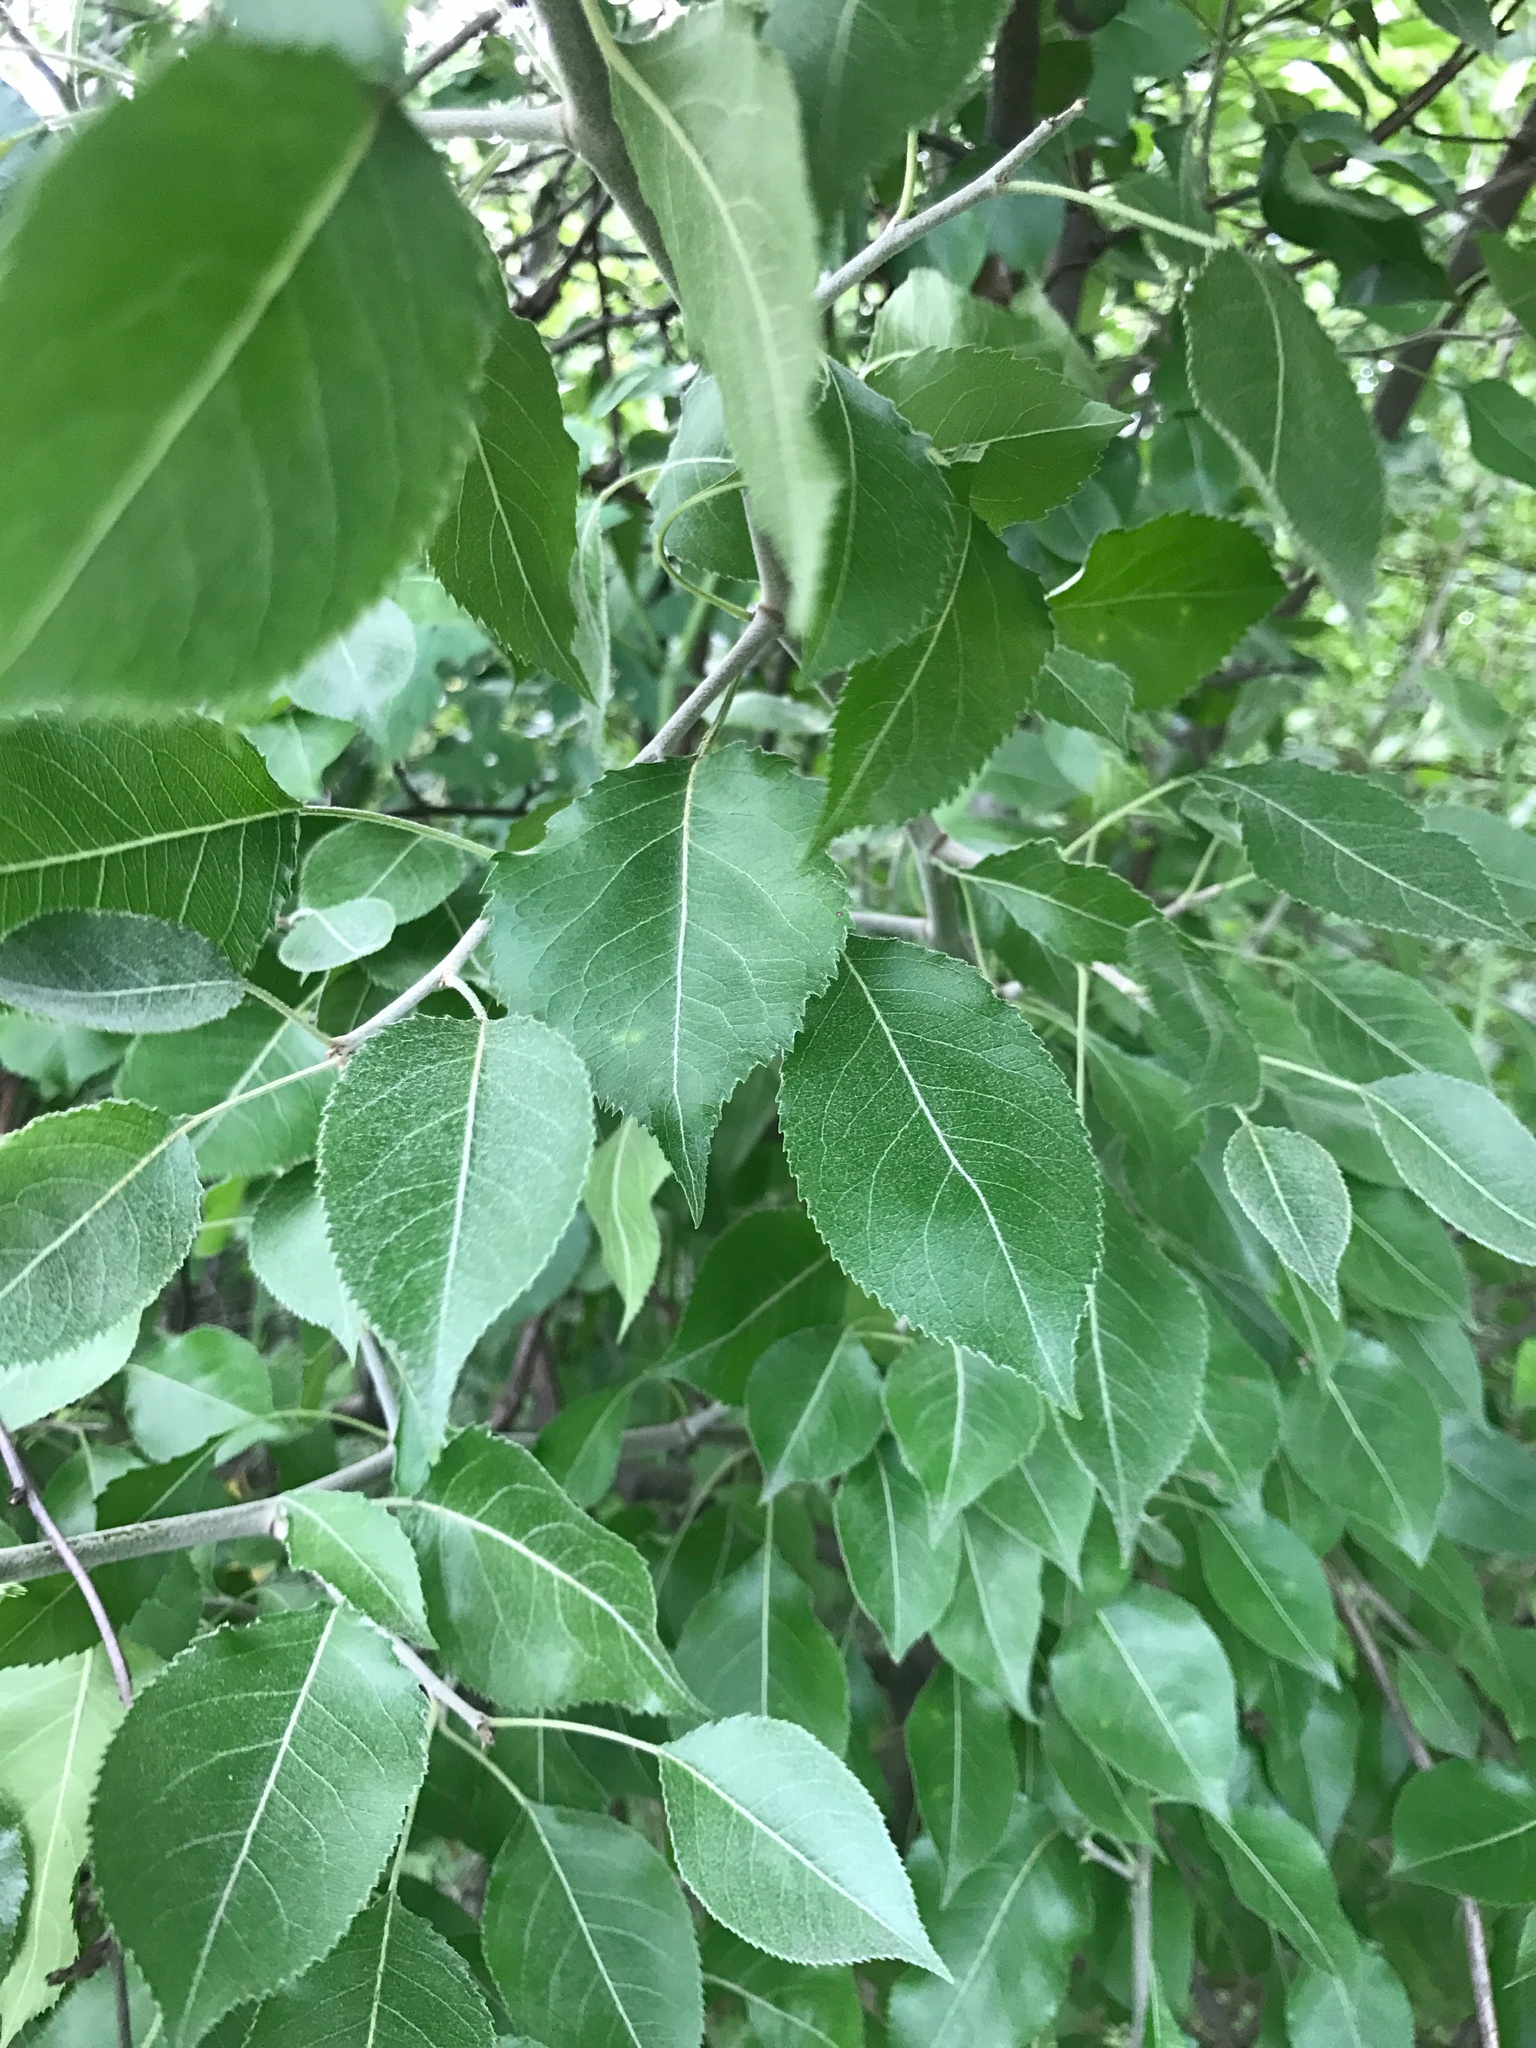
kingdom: Plantae
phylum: Tracheophyta
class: Magnoliopsida
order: Rosales
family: Rosaceae
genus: Pyrus
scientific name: Pyrus betulifolia
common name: Birch-leaf pear
